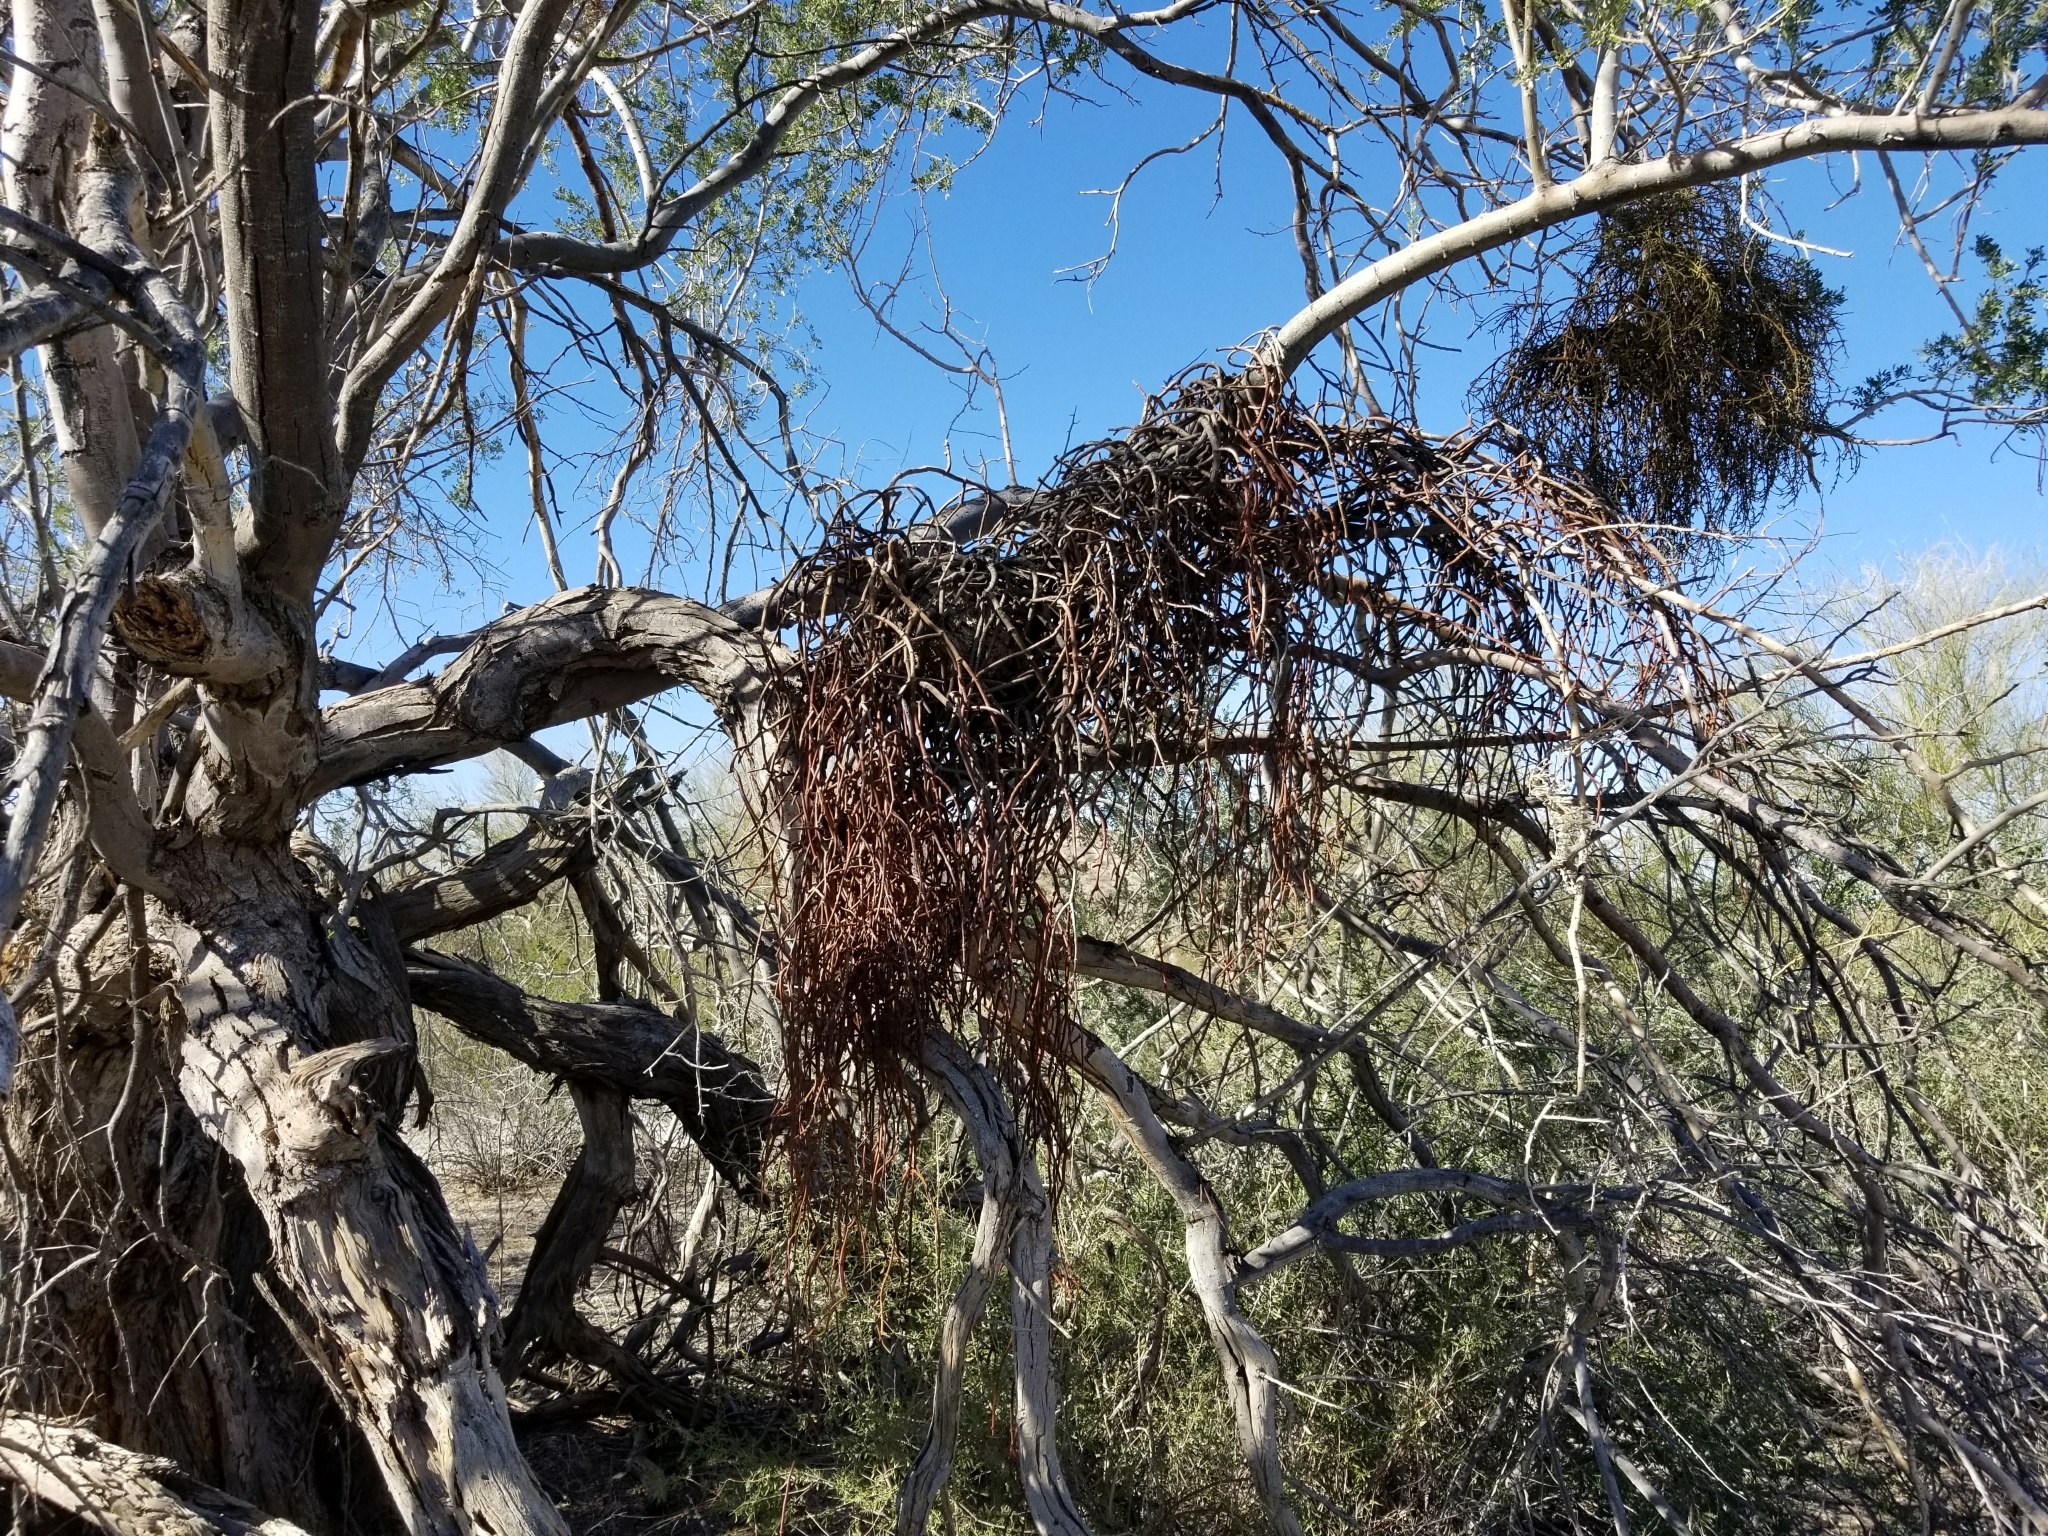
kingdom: Plantae
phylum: Tracheophyta
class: Magnoliopsida
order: Santalales
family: Viscaceae
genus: Phoradendron
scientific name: Phoradendron californicum
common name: Acacia mistletoe
